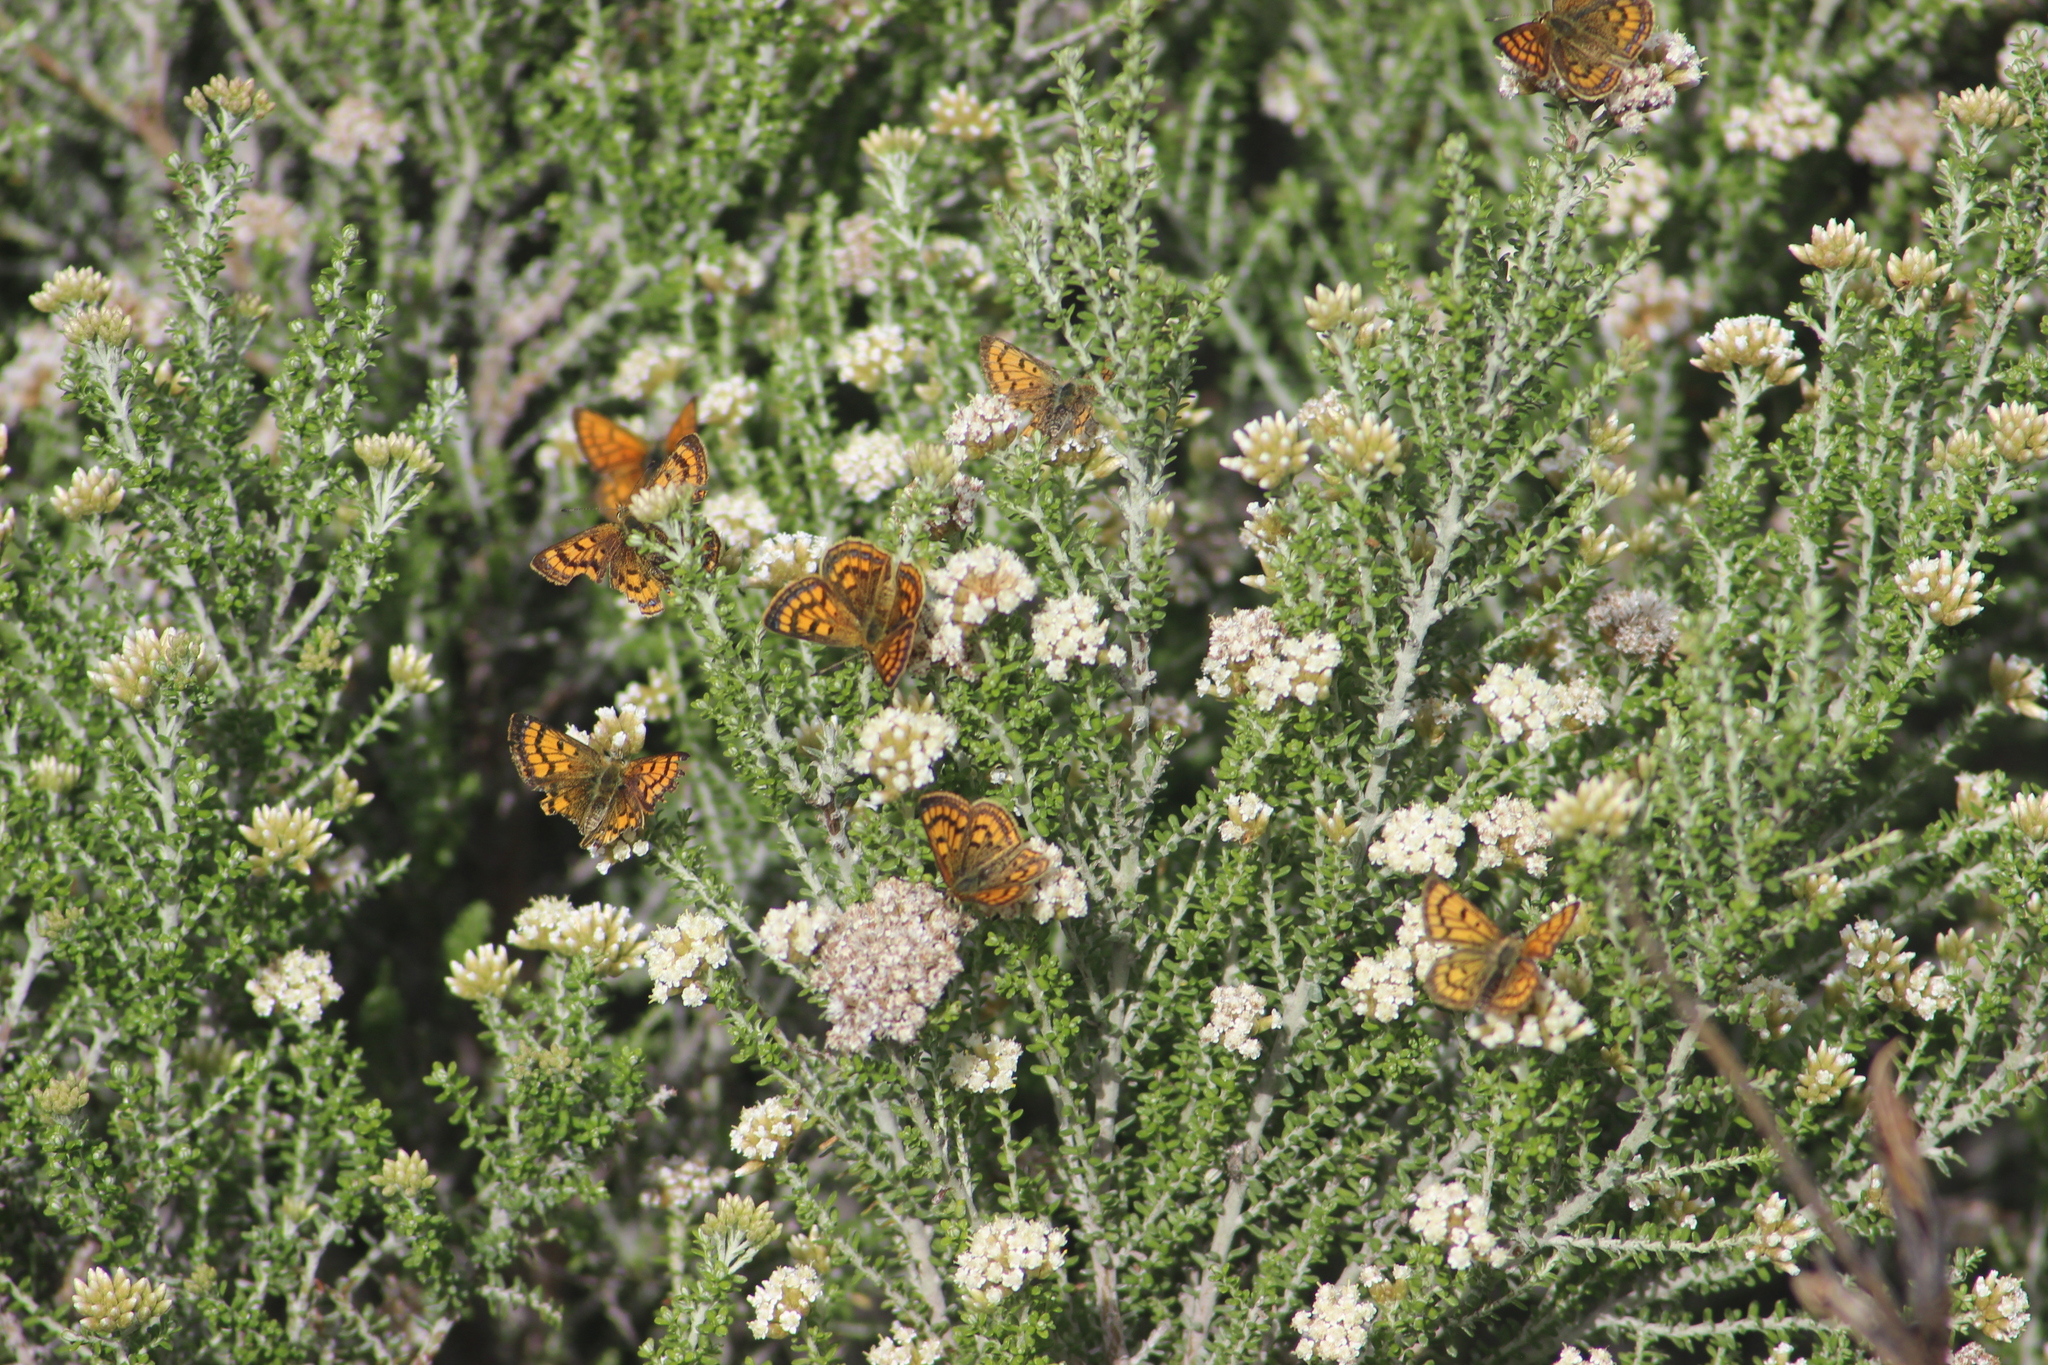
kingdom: Plantae
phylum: Tracheophyta
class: Magnoliopsida
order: Asterales
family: Asteraceae
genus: Ozothamnus
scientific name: Ozothamnus leptophyllus
